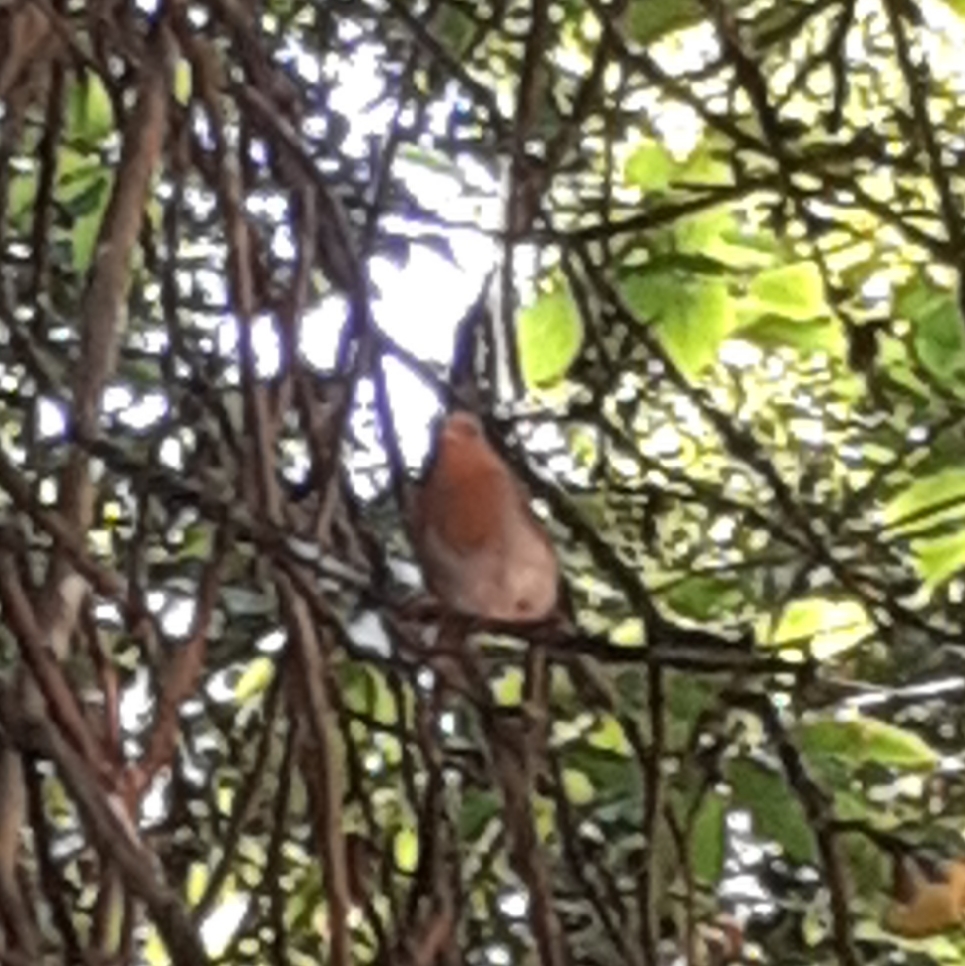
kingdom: Animalia
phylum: Chordata
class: Aves
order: Passeriformes
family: Muscicapidae
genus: Erithacus
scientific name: Erithacus rubecula
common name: European robin
